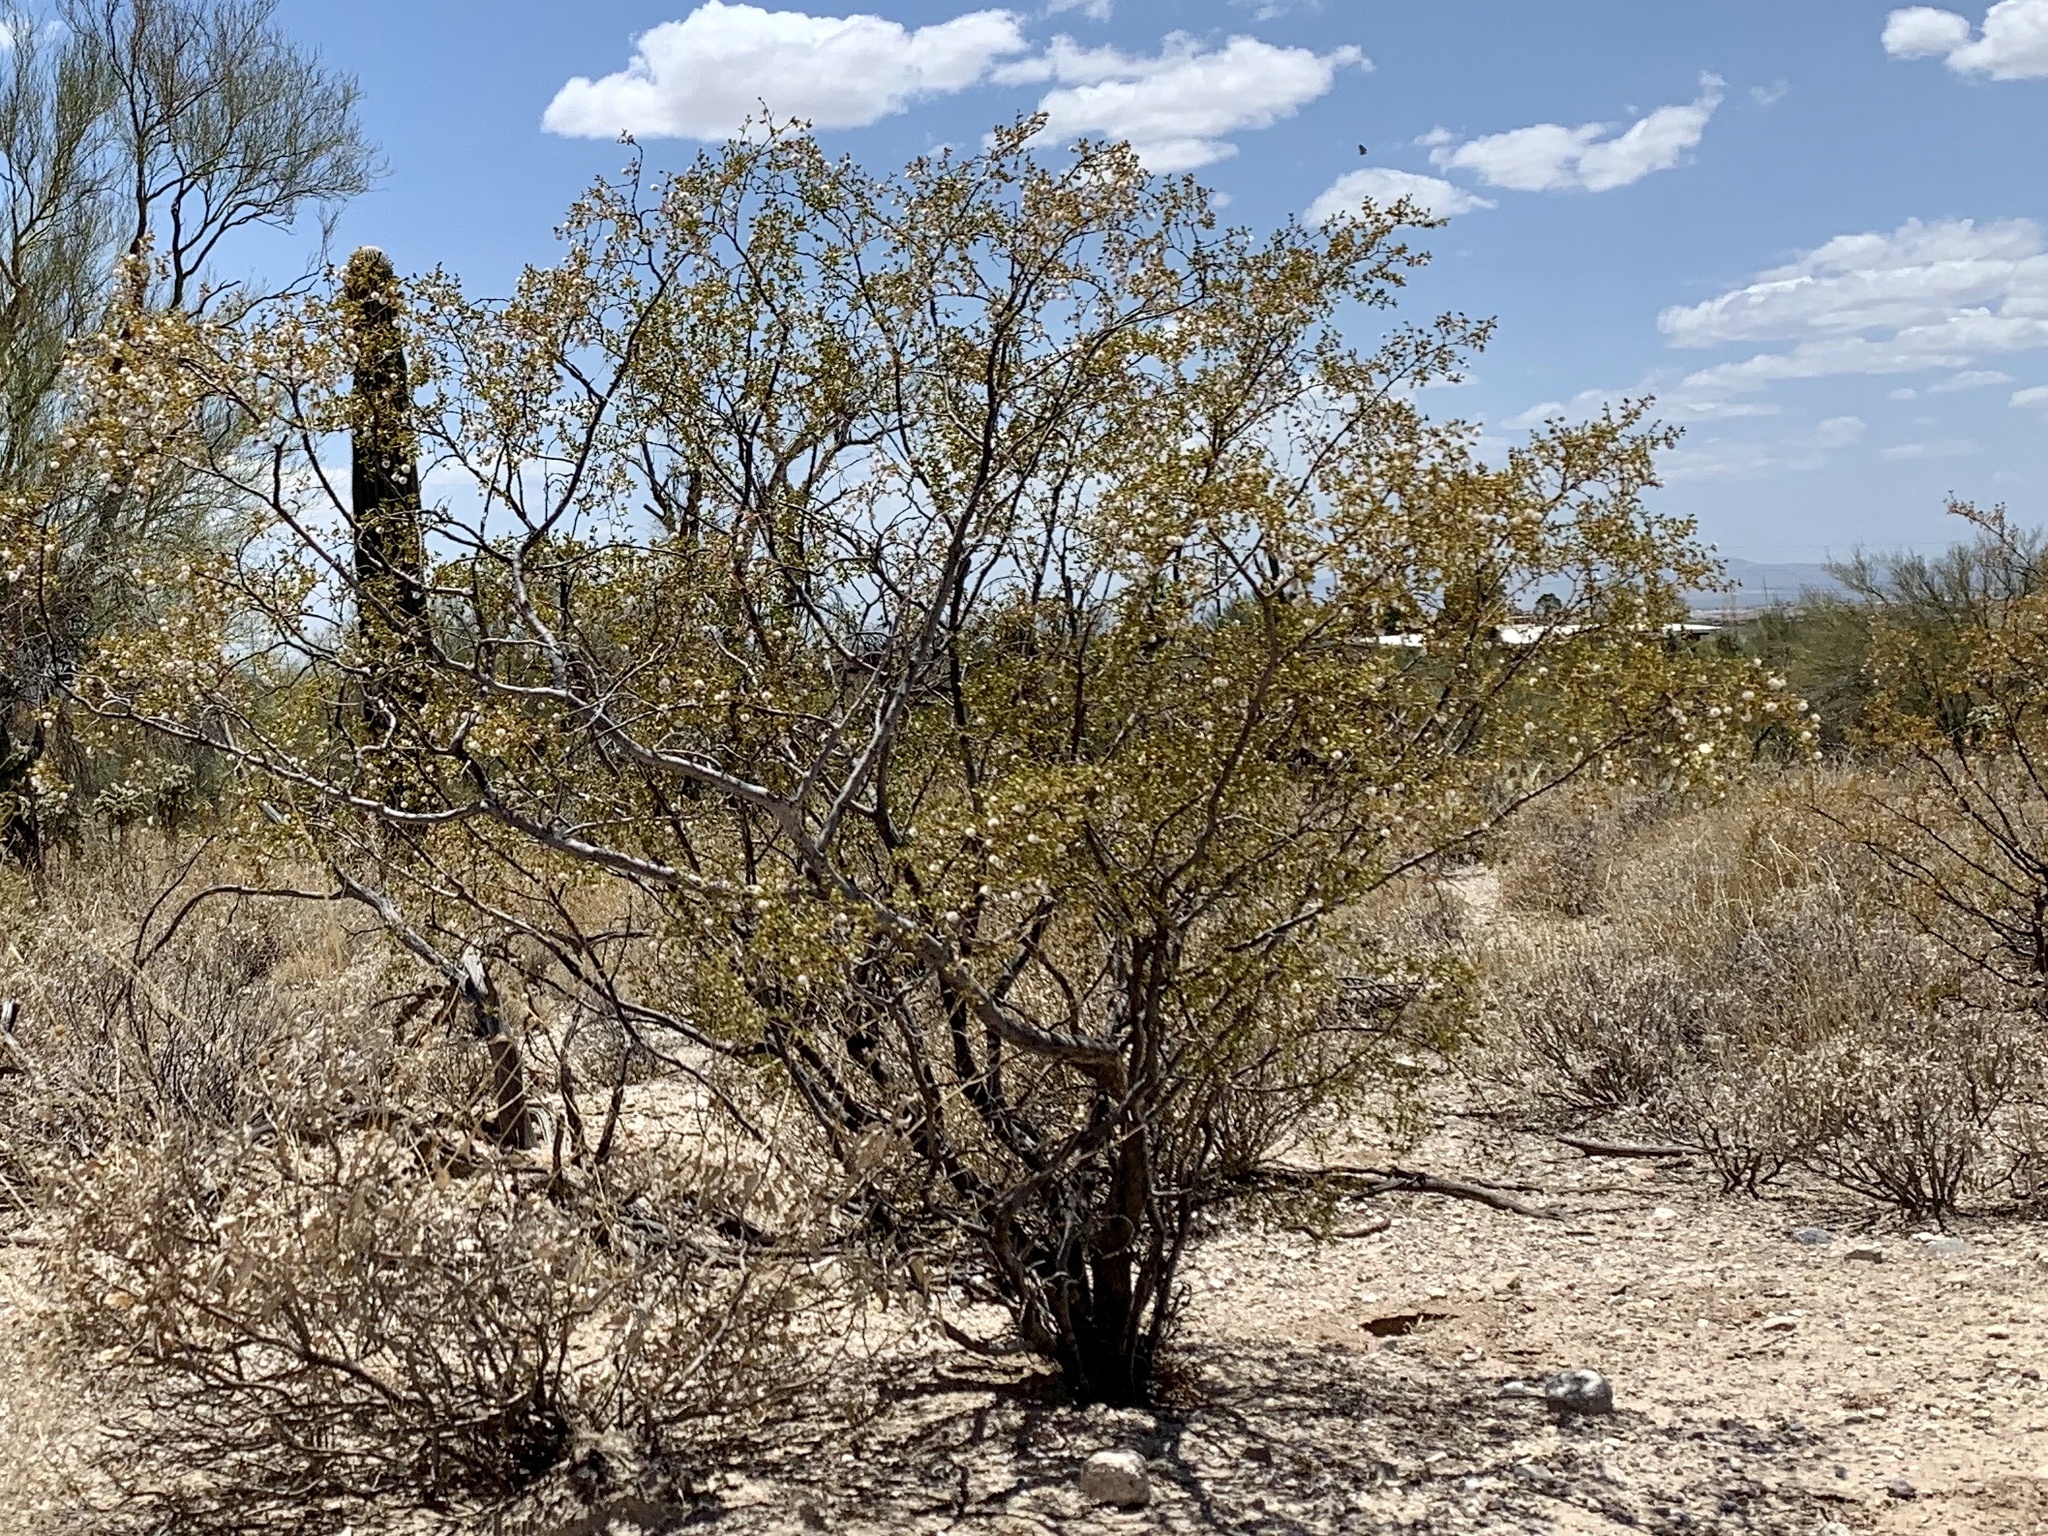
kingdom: Plantae
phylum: Tracheophyta
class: Magnoliopsida
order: Zygophyllales
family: Zygophyllaceae
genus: Larrea
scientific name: Larrea tridentata
